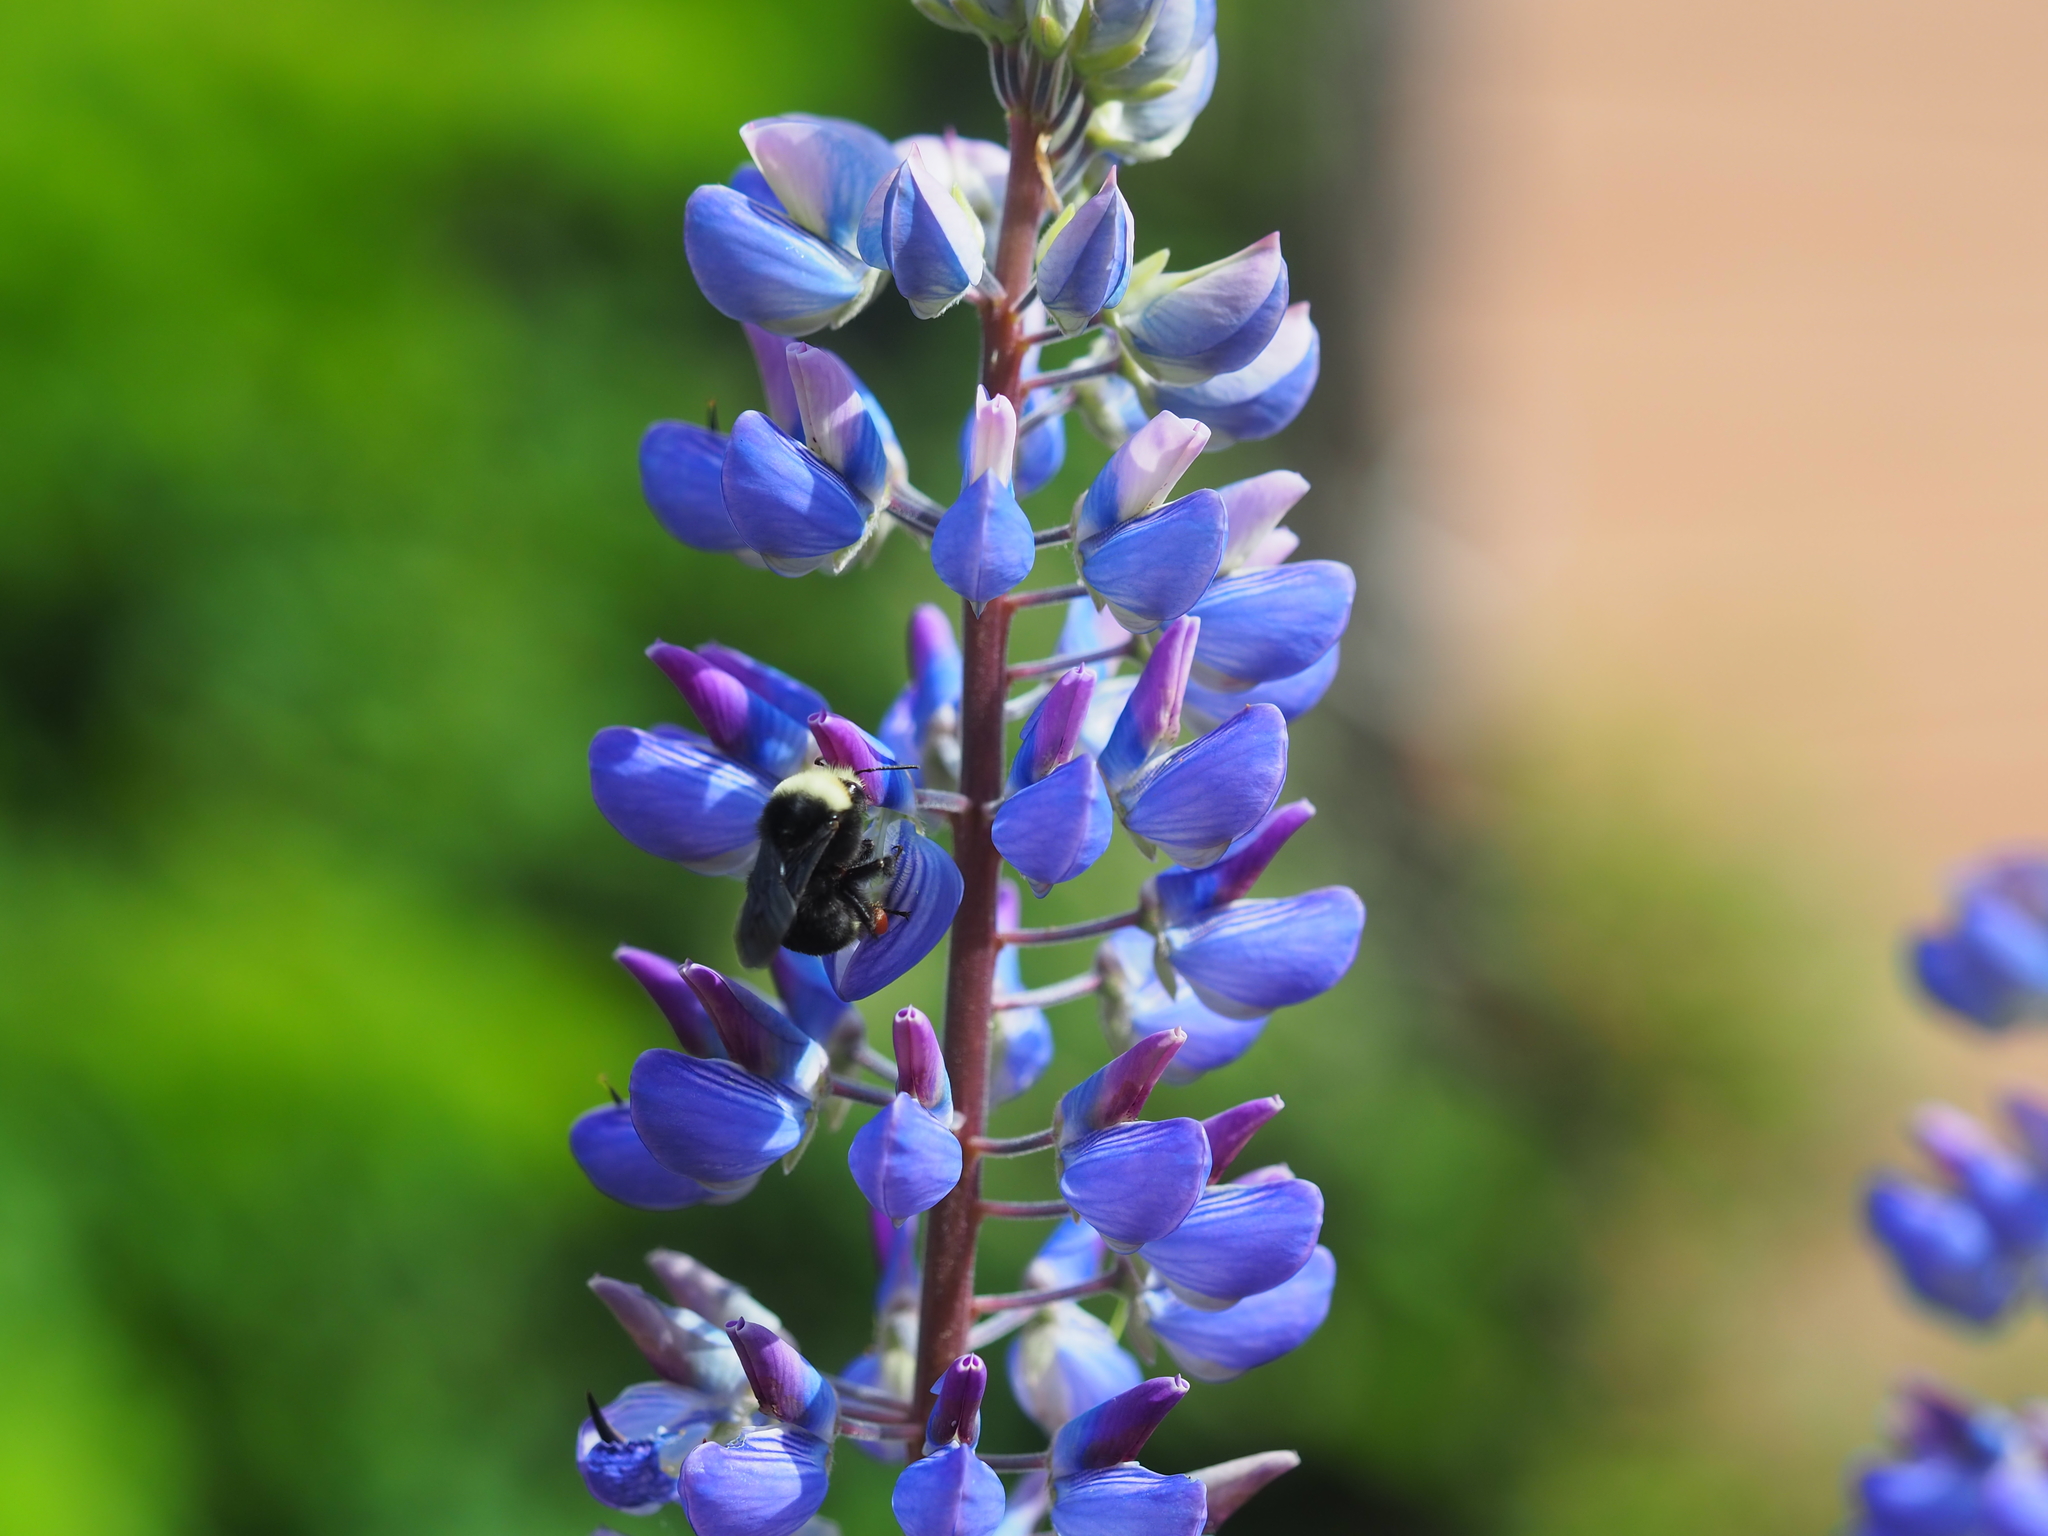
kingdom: Animalia
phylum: Arthropoda
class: Insecta
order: Hymenoptera
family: Apidae
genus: Bombus
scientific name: Bombus vosnesenskii
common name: Vosnesensky bumble bee
